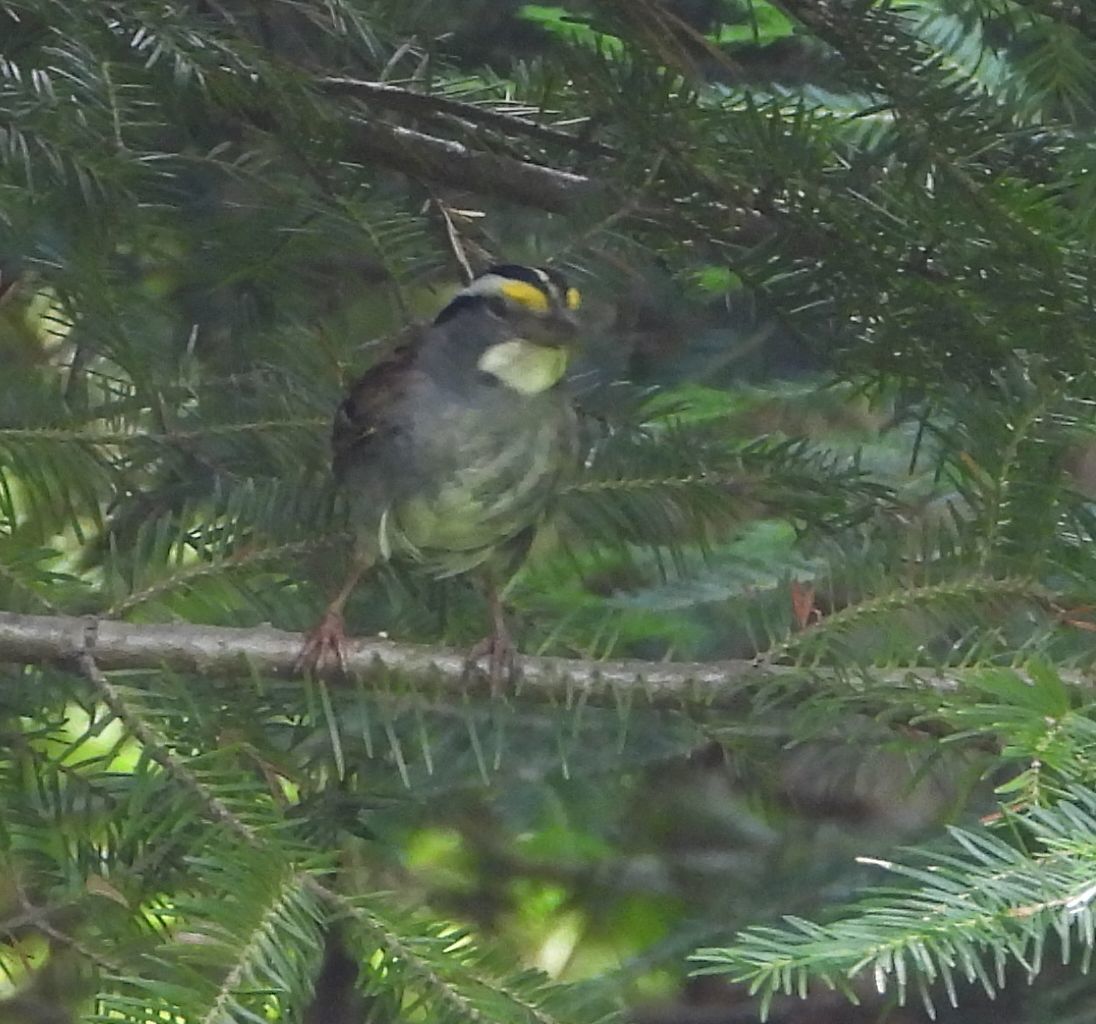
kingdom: Animalia
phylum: Chordata
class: Aves
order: Passeriformes
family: Passerellidae
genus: Zonotrichia
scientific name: Zonotrichia albicollis
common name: White-throated sparrow
